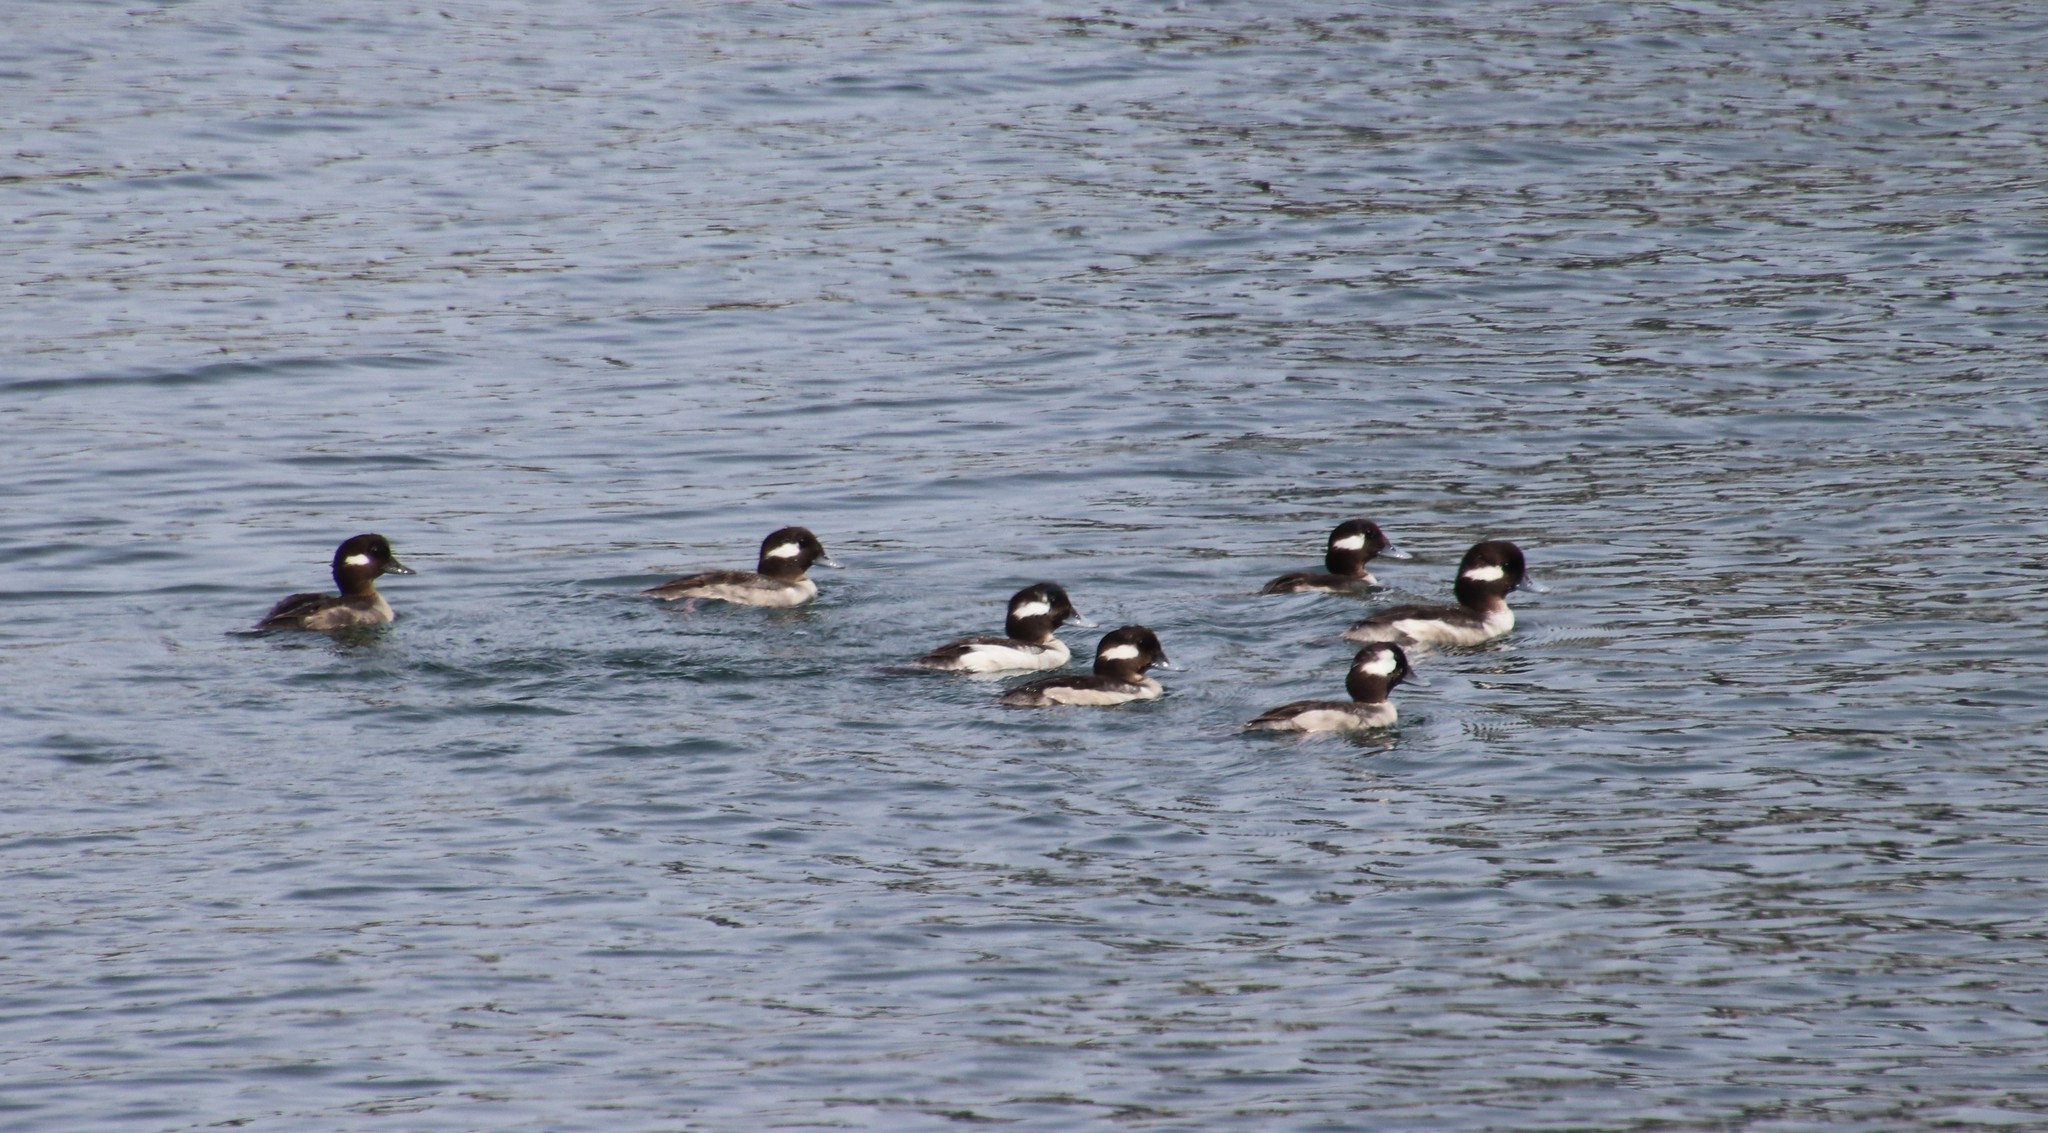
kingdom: Animalia
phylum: Chordata
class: Aves
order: Anseriformes
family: Anatidae
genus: Bucephala
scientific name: Bucephala albeola
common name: Bufflehead
